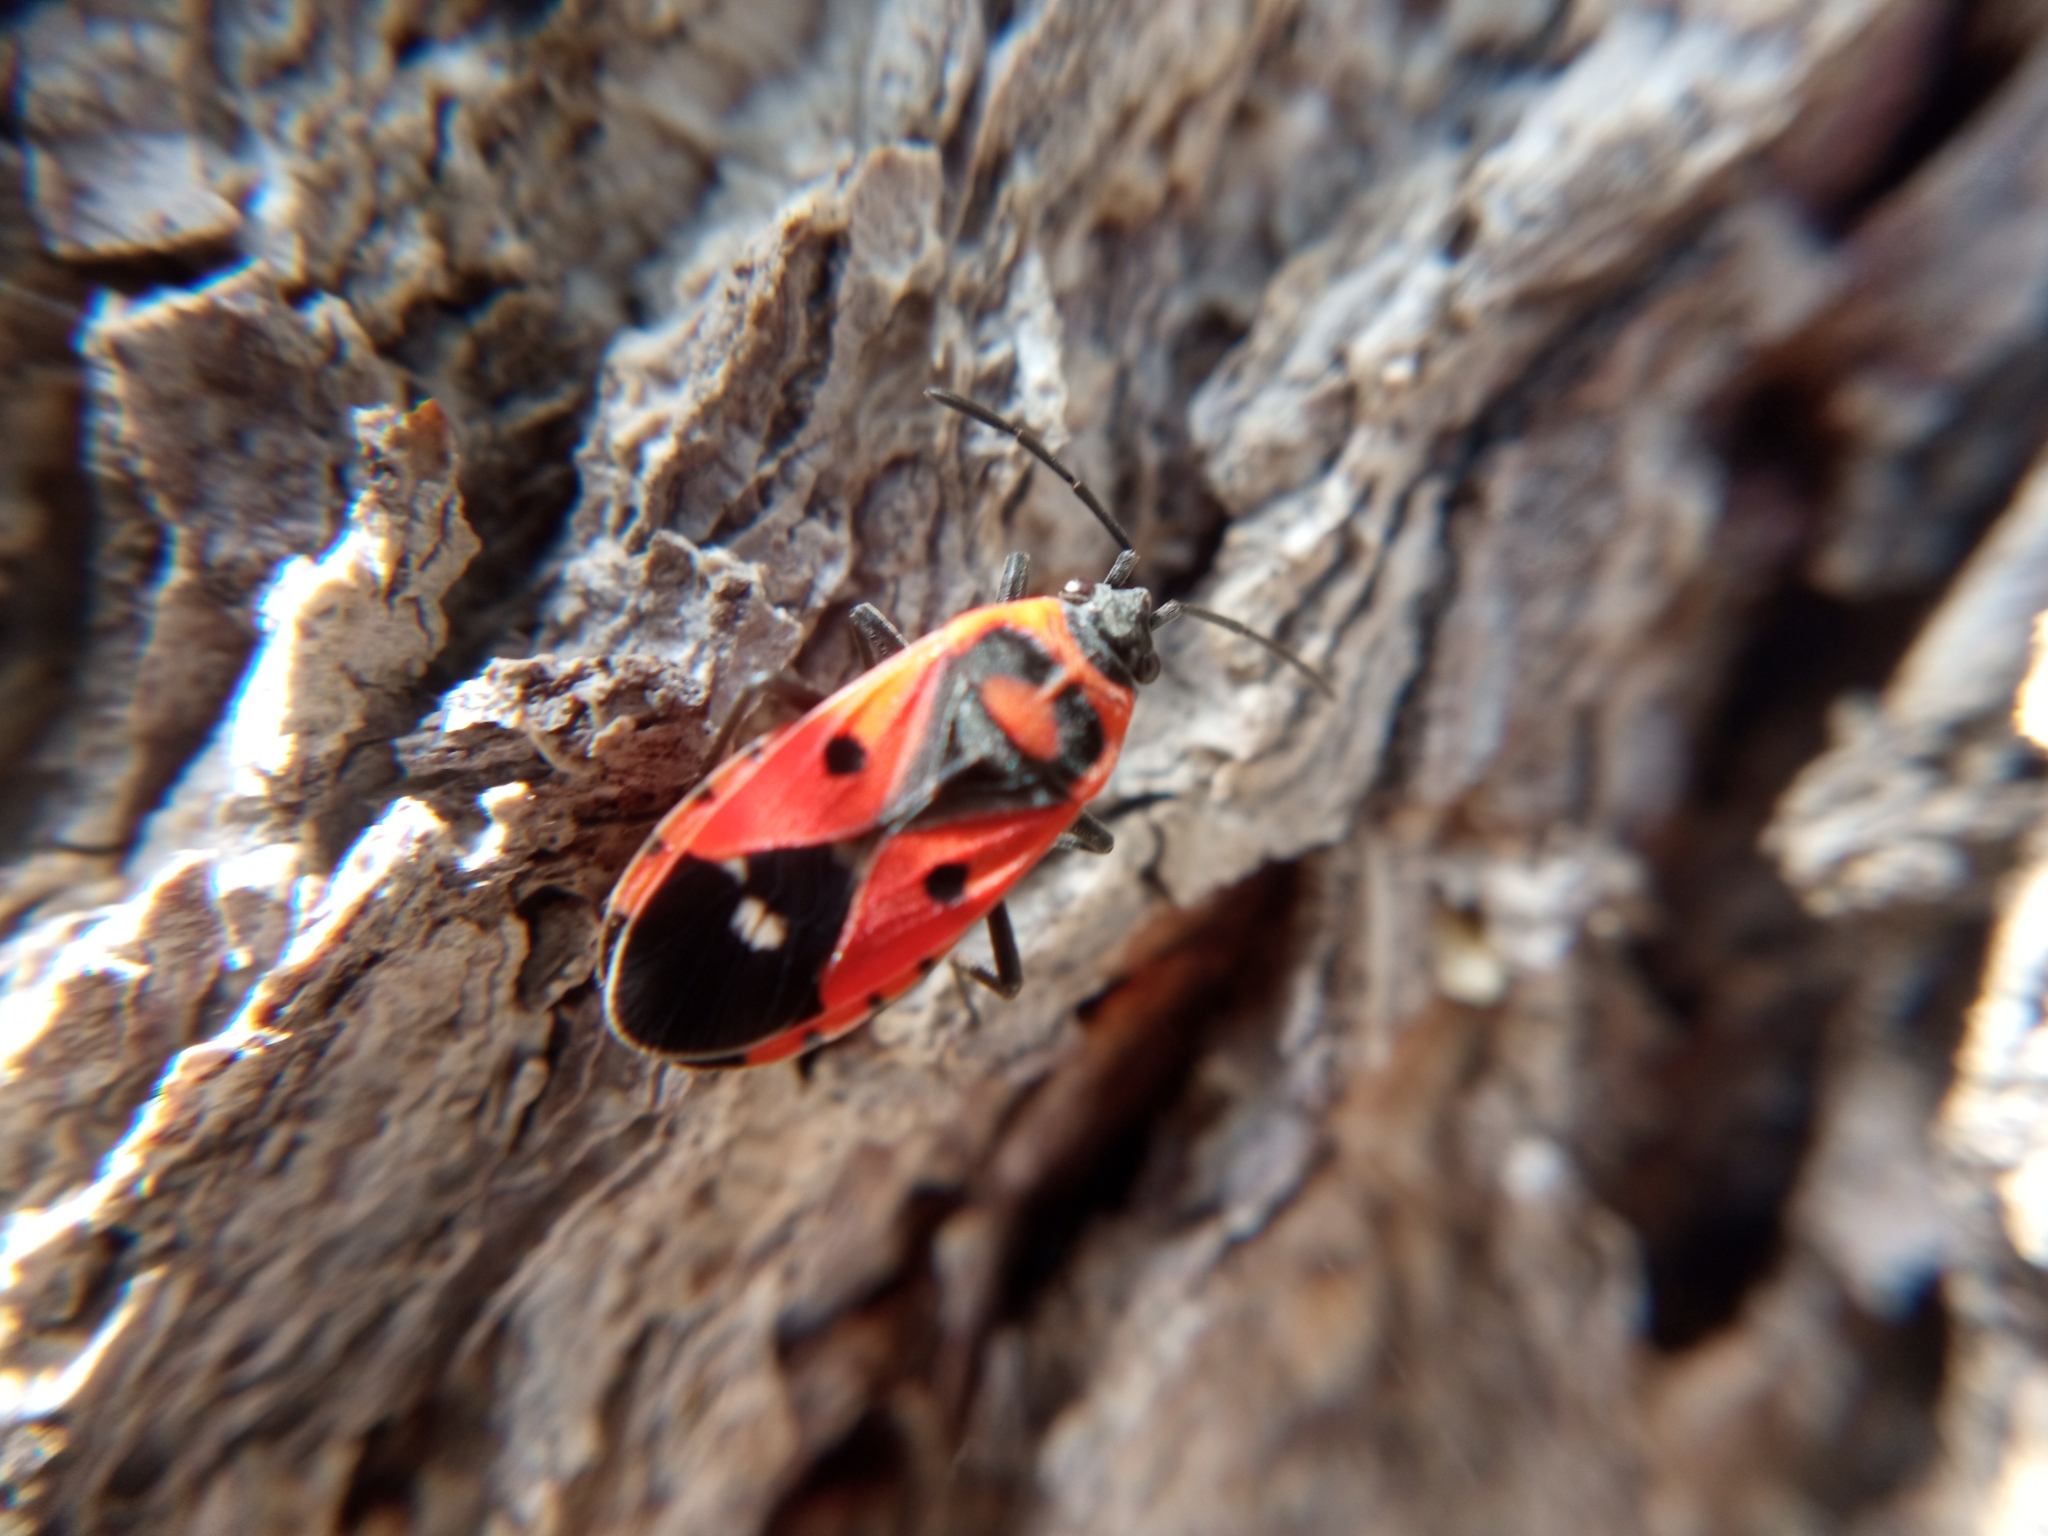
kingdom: Animalia
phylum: Arthropoda
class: Insecta
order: Hemiptera
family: Lygaeidae
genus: Melanocoryphus
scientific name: Melanocoryphus albomaculatus
